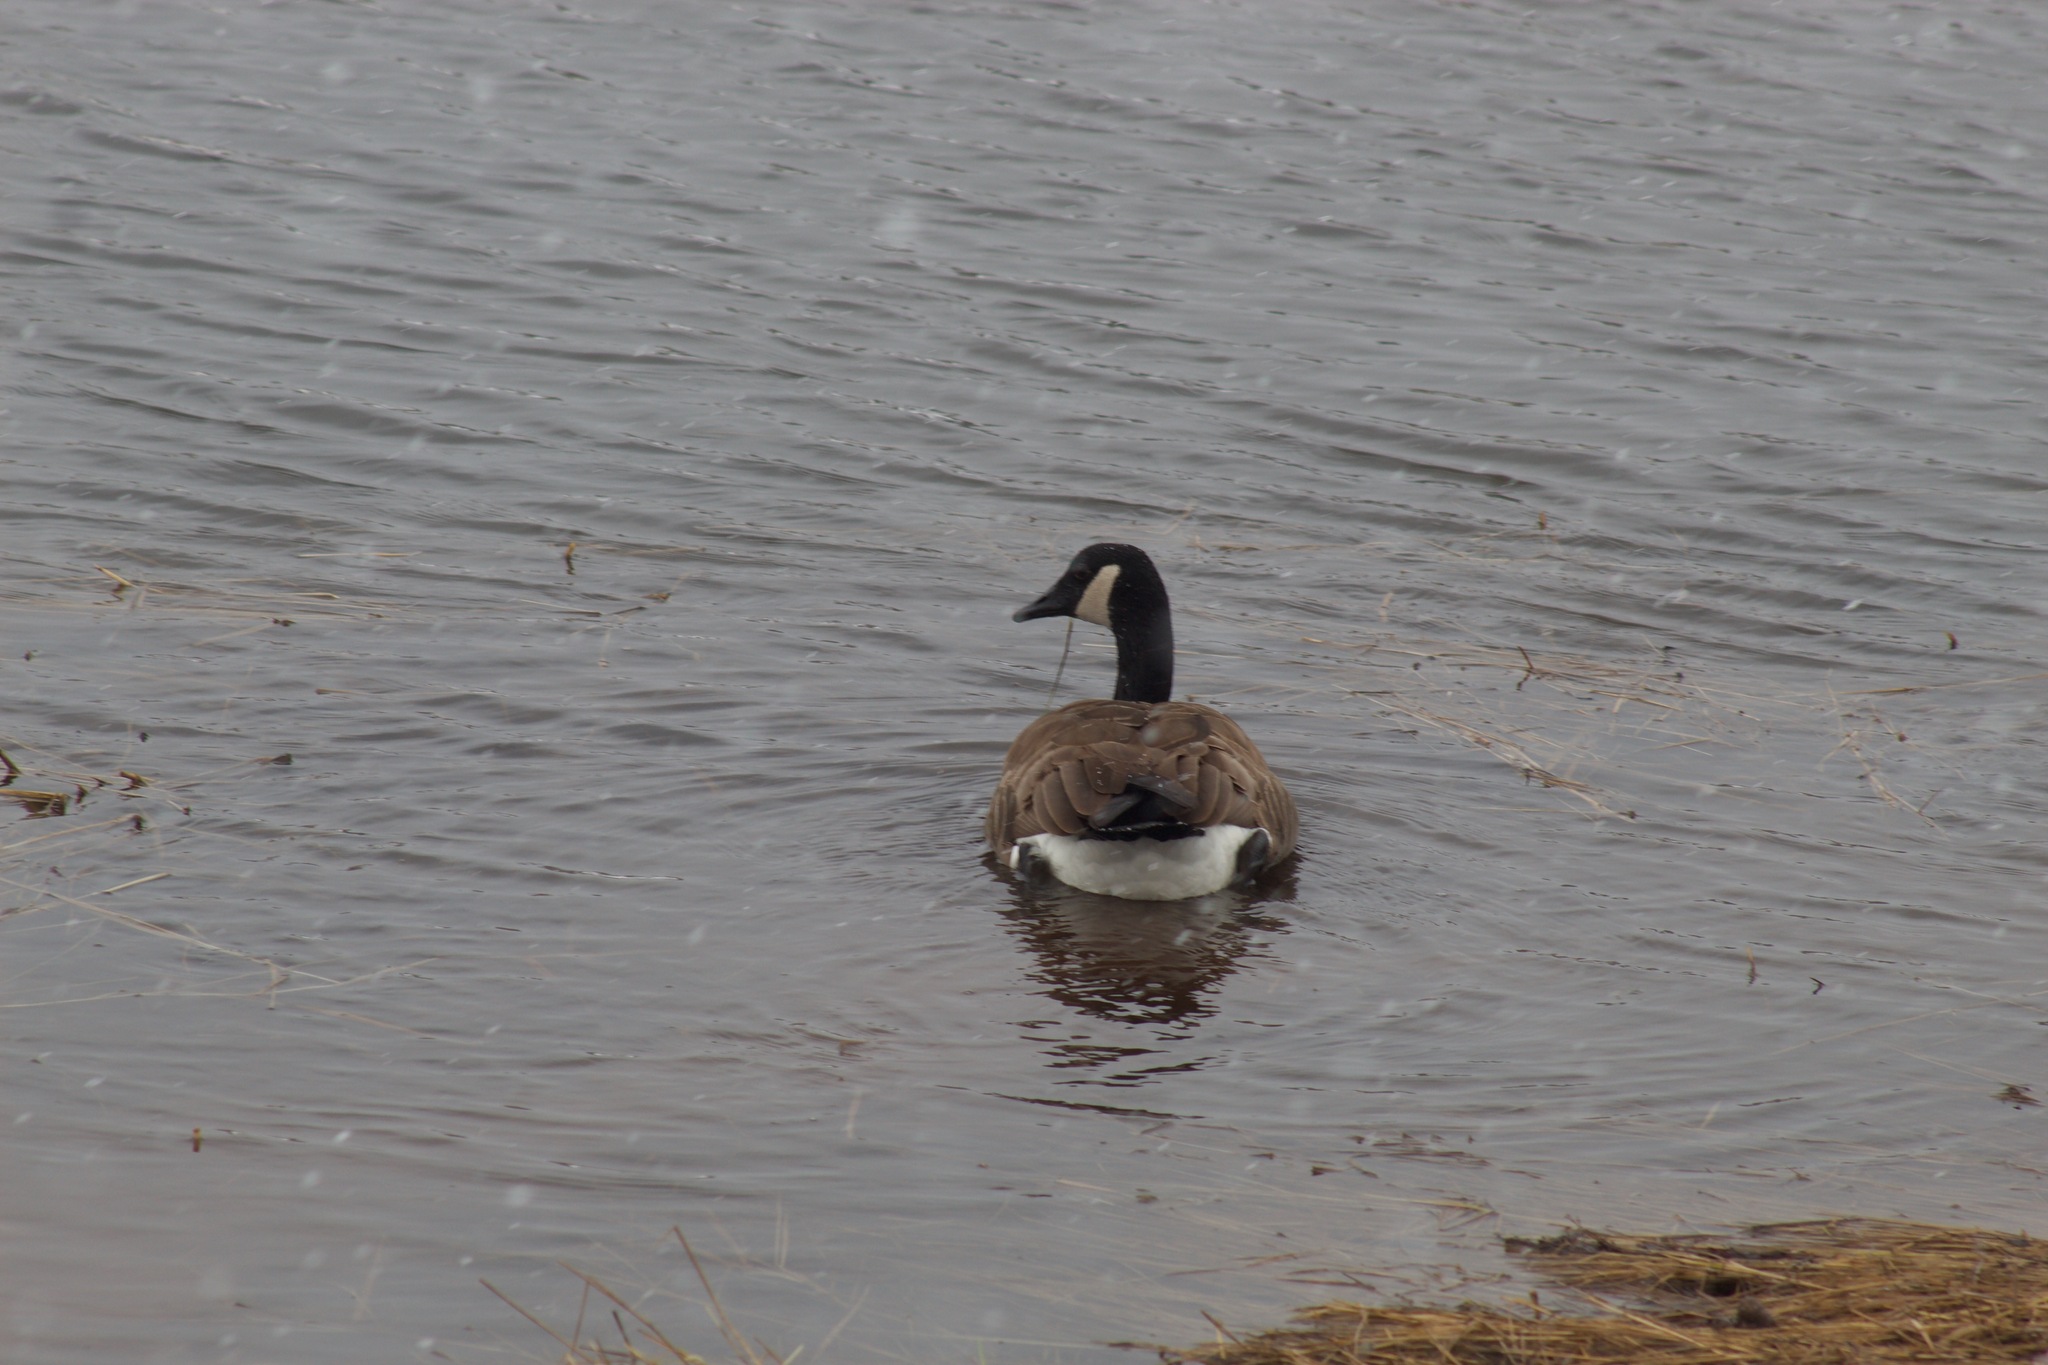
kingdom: Animalia
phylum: Chordata
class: Aves
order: Anseriformes
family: Anatidae
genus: Branta
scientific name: Branta canadensis
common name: Canada goose
